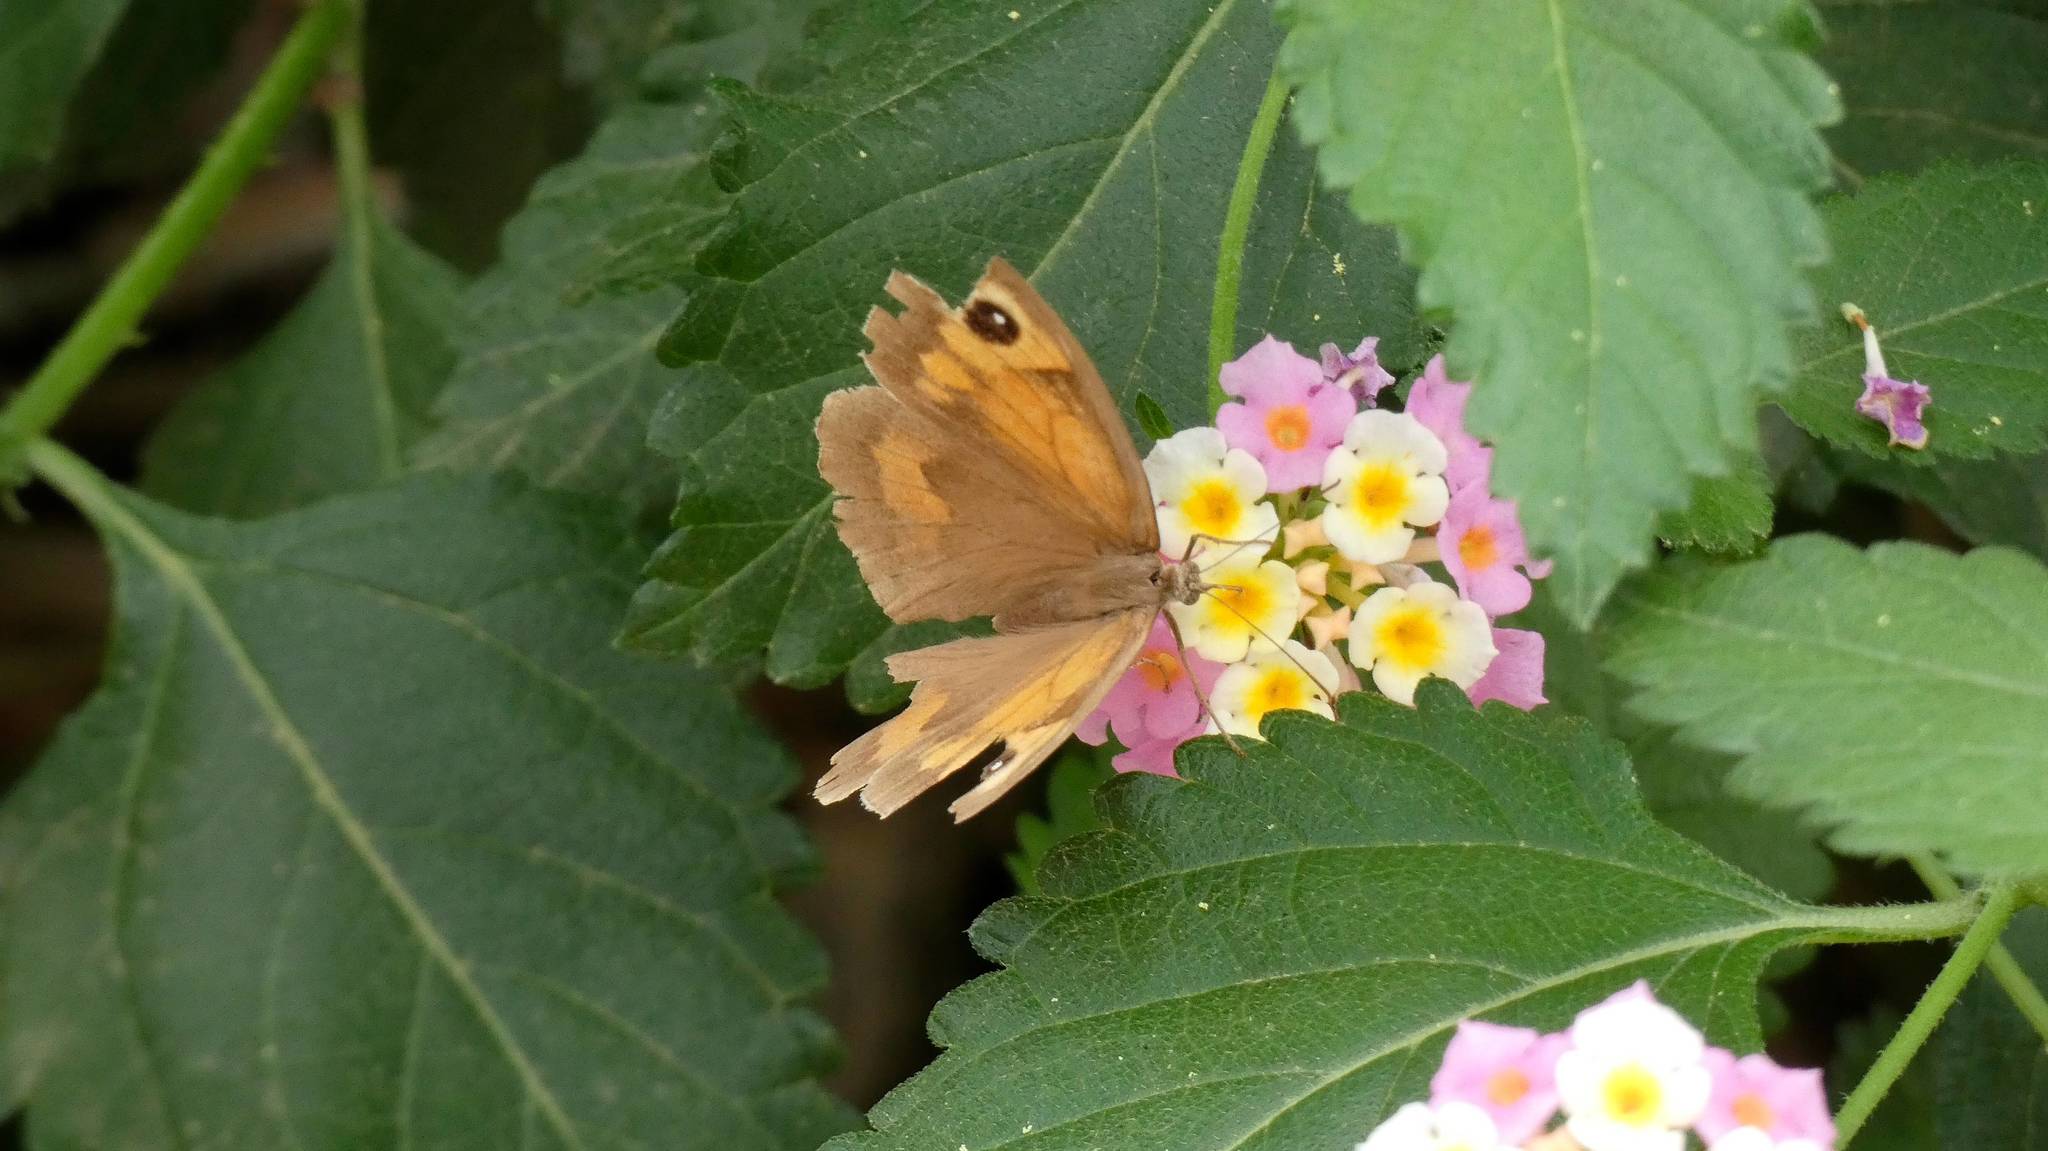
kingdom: Animalia
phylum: Arthropoda
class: Insecta
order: Lepidoptera
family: Nymphalidae
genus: Maniola
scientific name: Maniola jurtina
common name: Meadow brown
